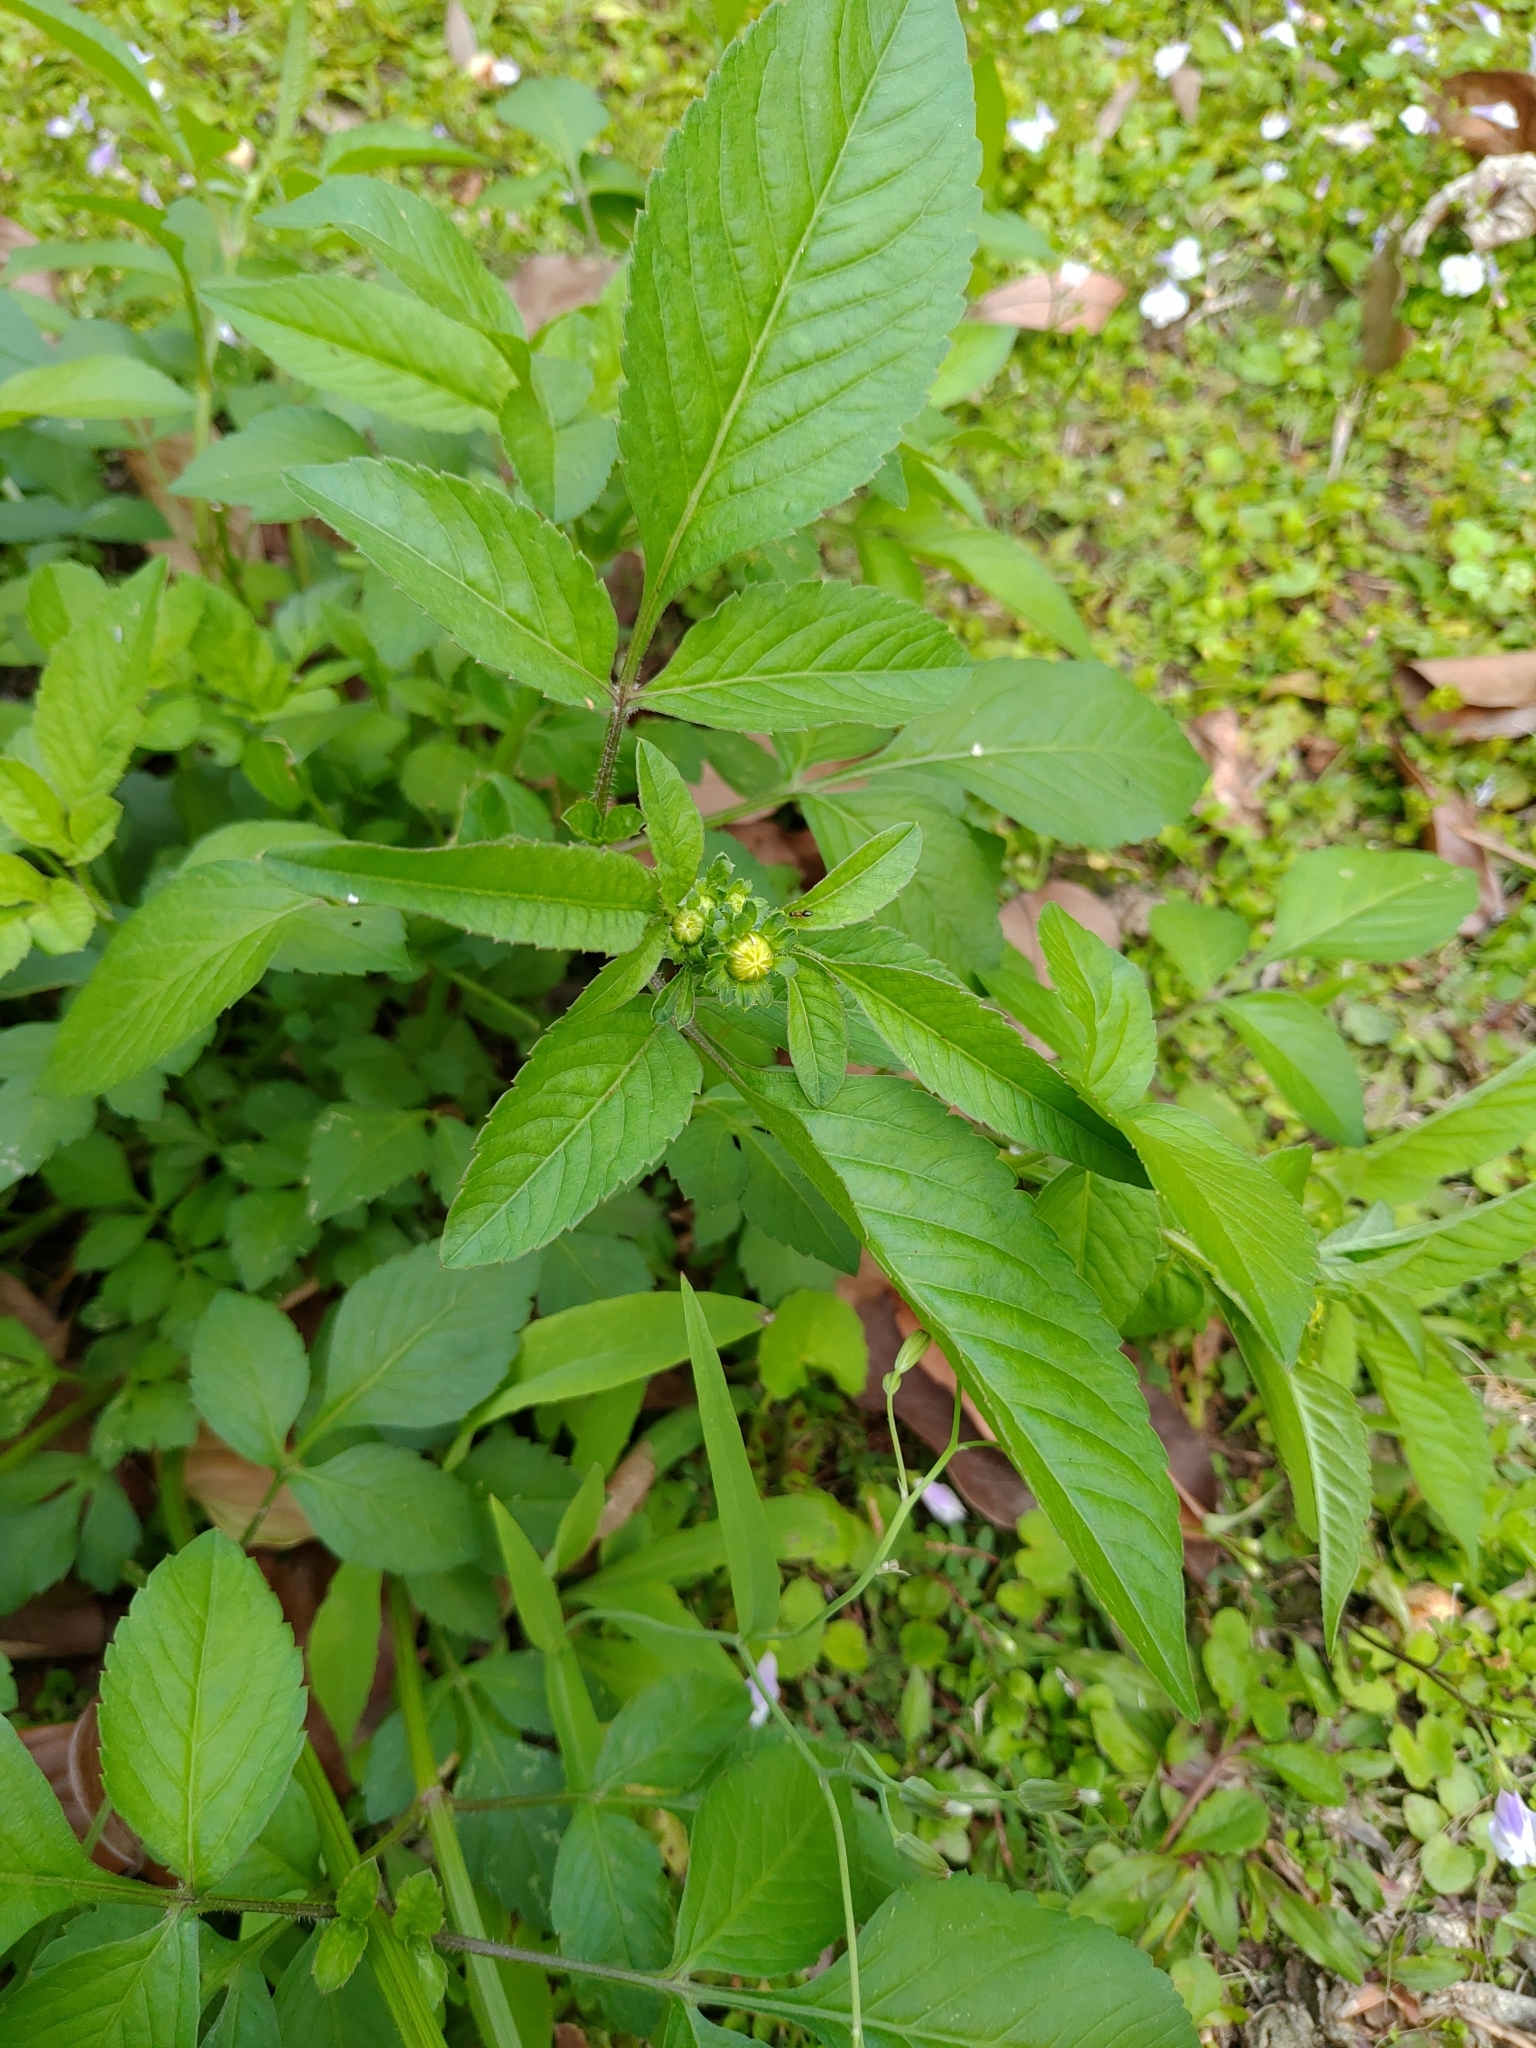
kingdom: Plantae
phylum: Tracheophyta
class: Magnoliopsida
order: Asterales
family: Asteraceae
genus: Bidens
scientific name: Bidens alba
